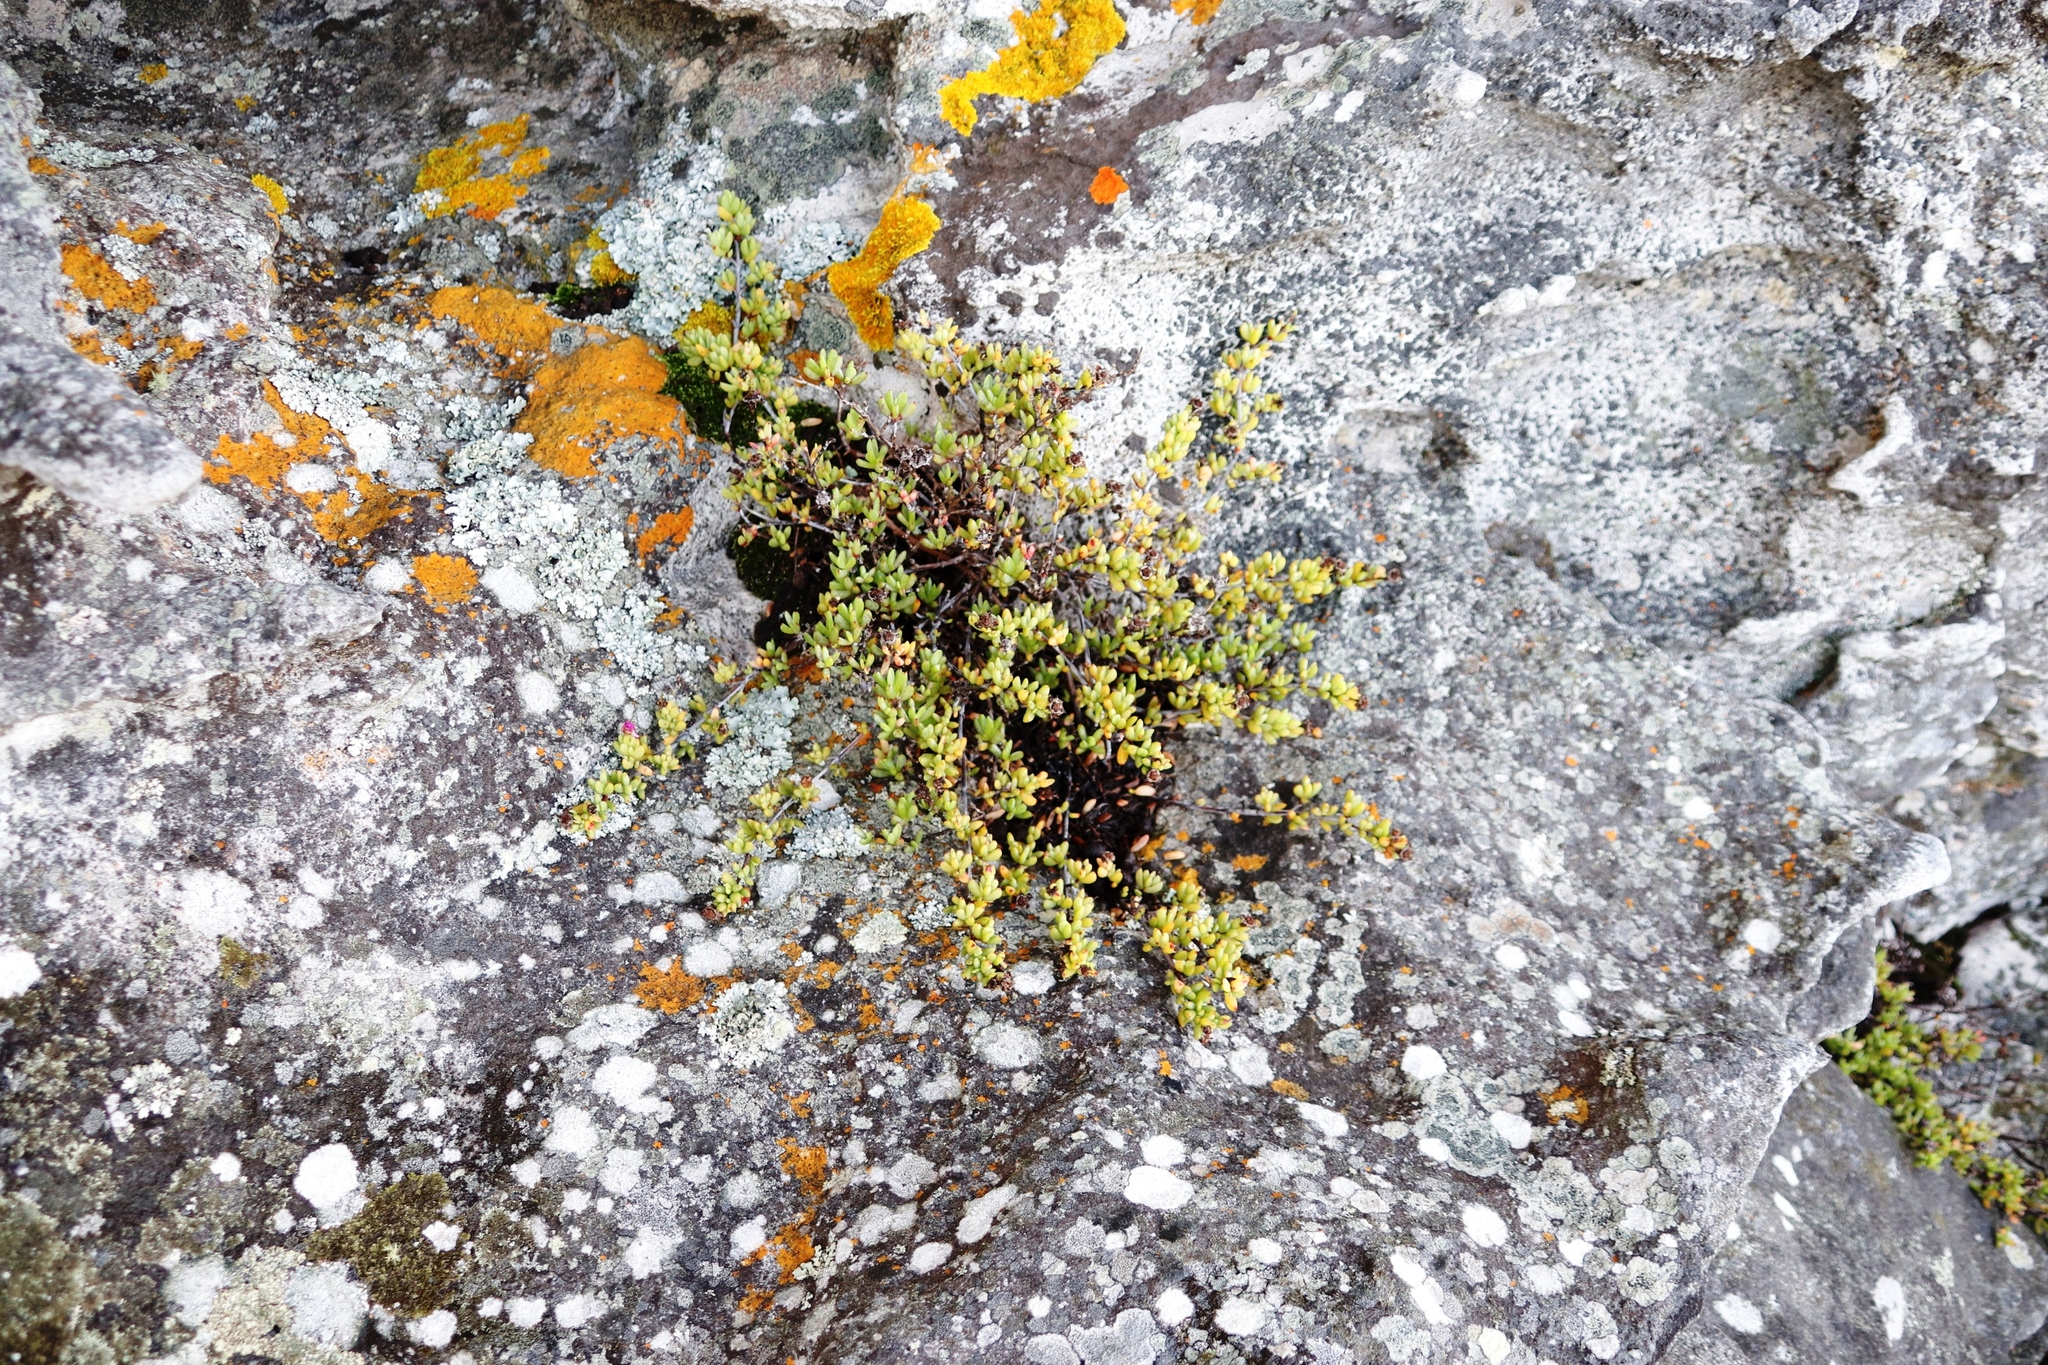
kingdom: Plantae
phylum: Tracheophyta
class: Magnoliopsida
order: Caryophyllales
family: Aizoaceae
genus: Oscularia
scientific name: Oscularia falciformis
